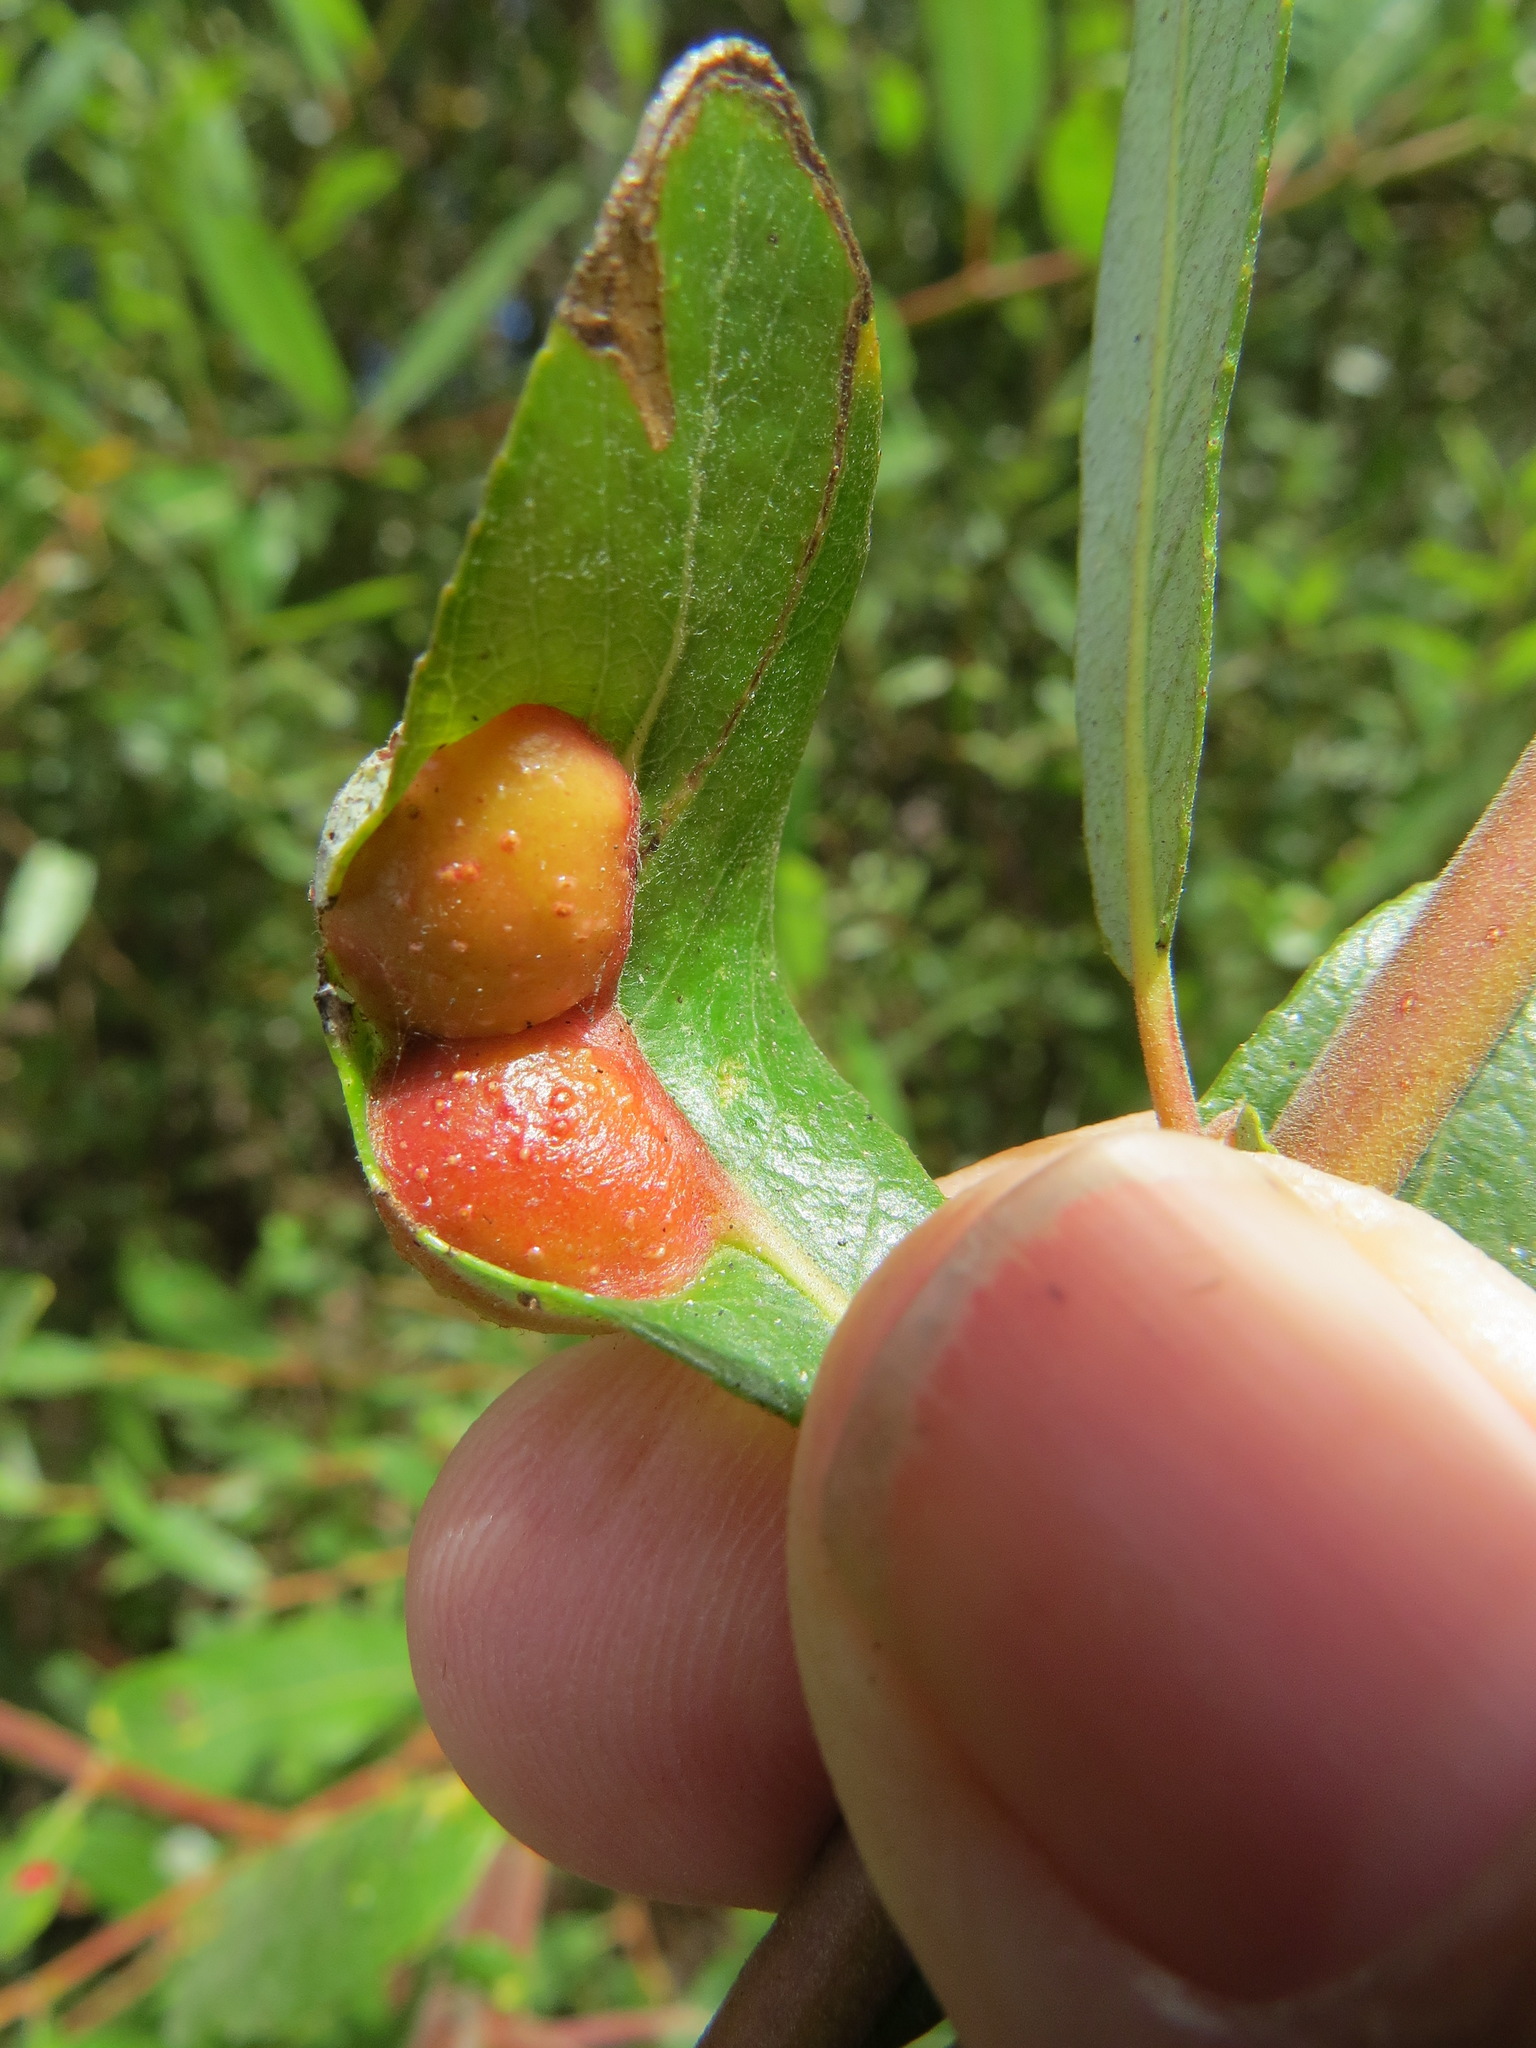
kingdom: Animalia
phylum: Arthropoda
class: Insecta
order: Hymenoptera
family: Tenthredinidae
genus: Euura
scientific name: Euura
